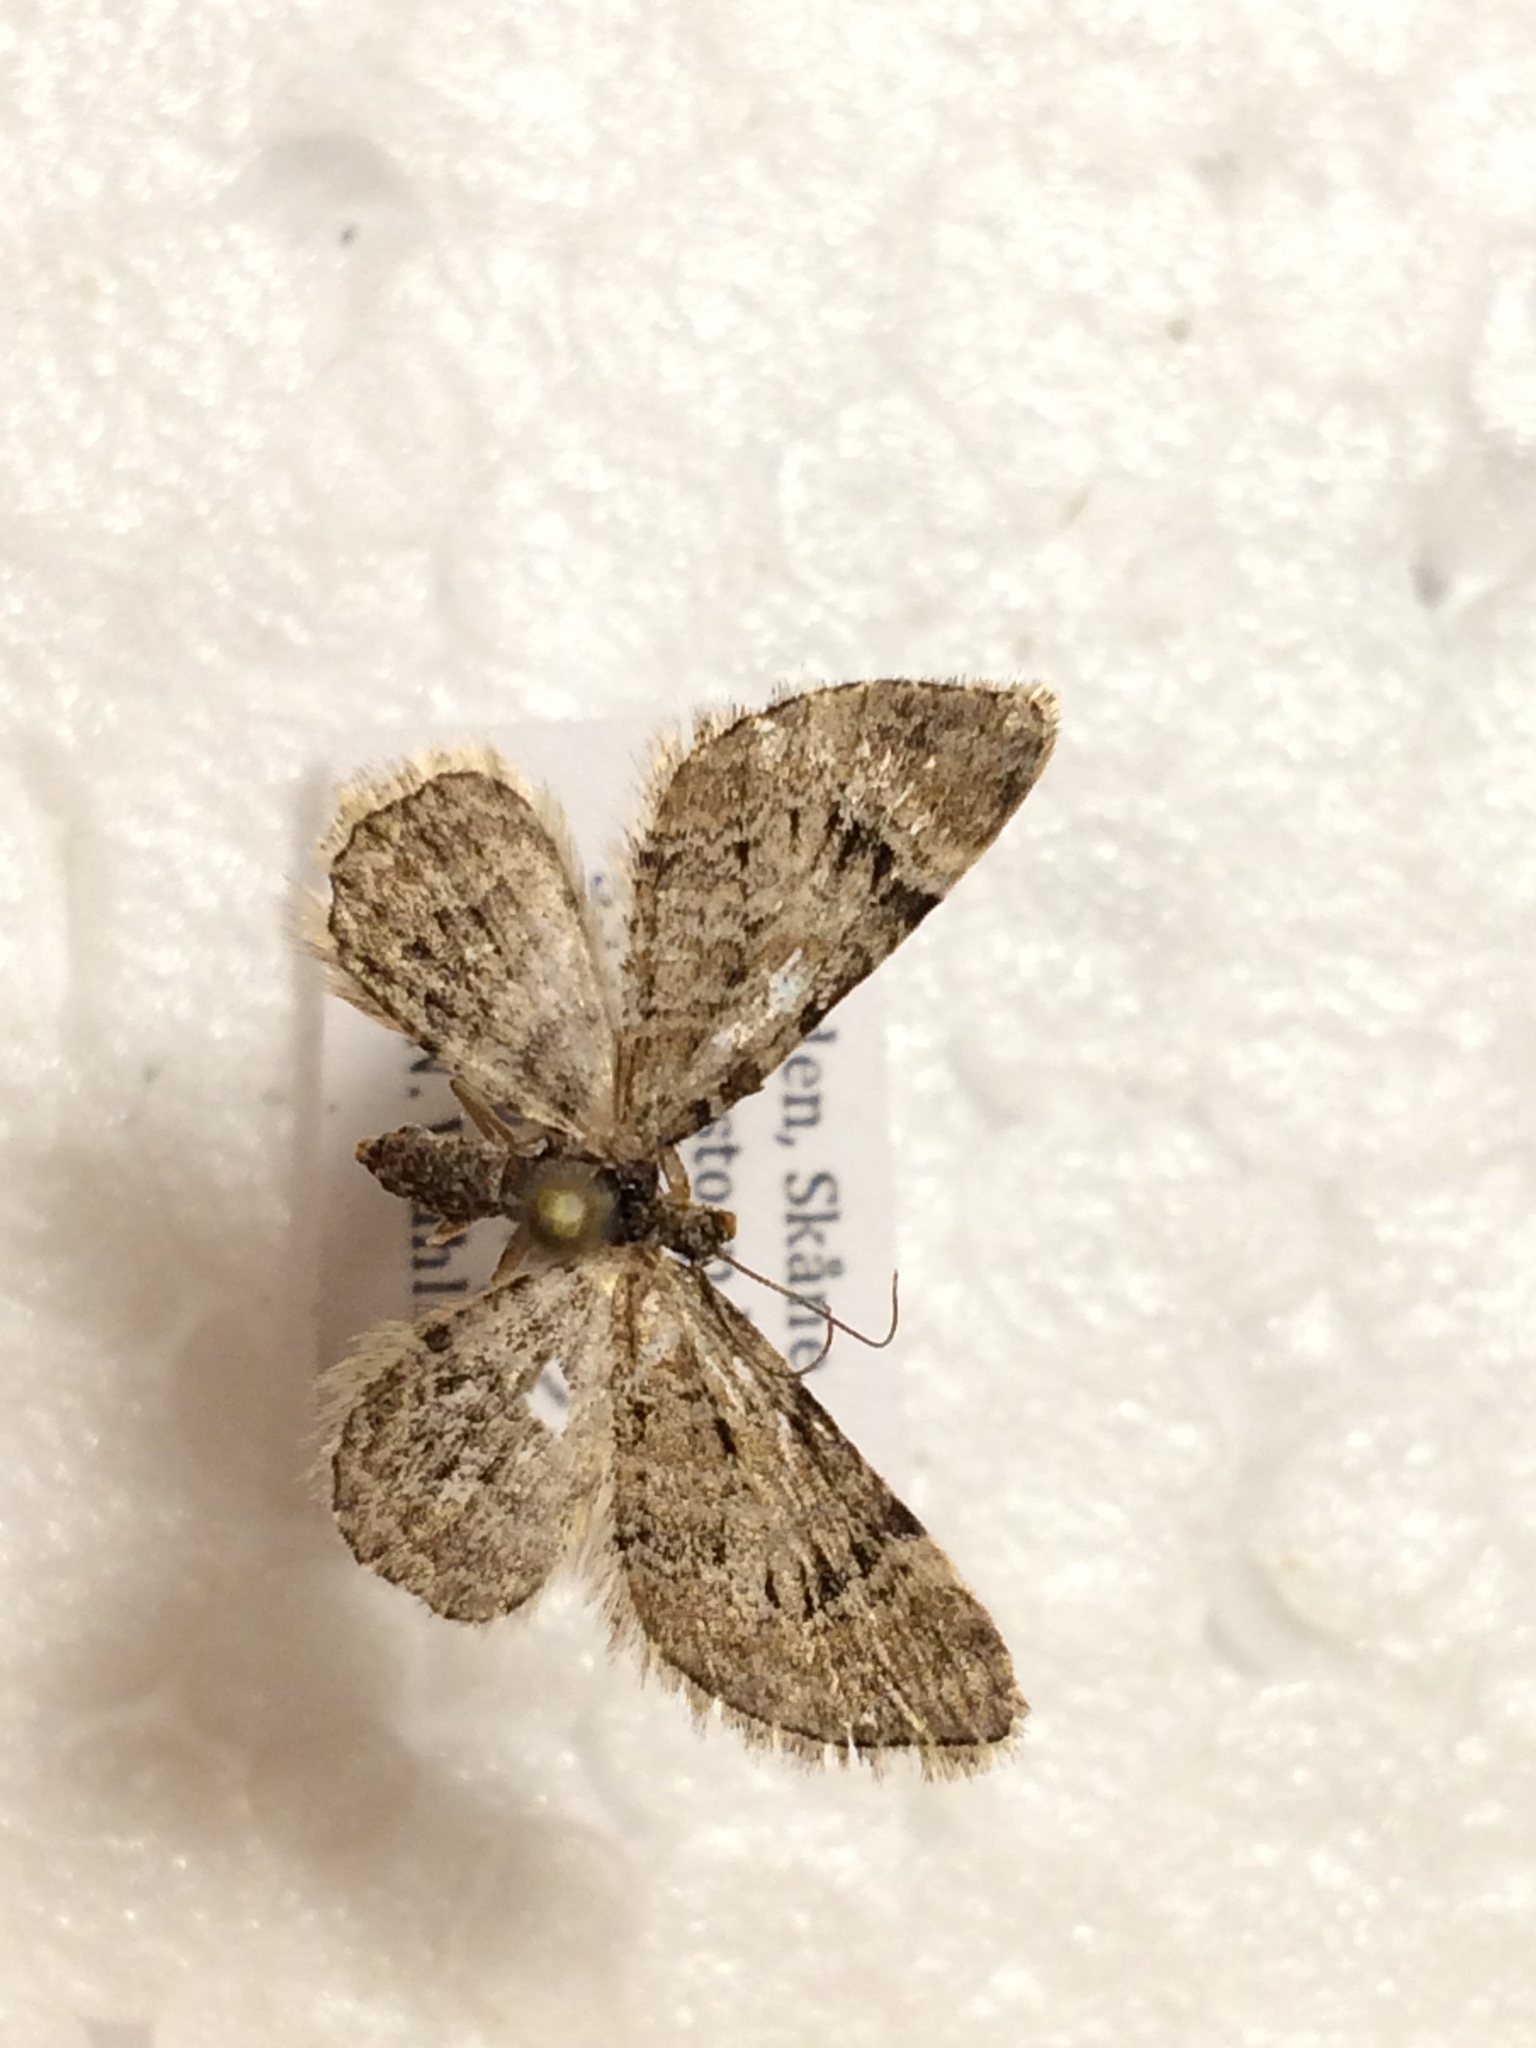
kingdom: Animalia
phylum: Arthropoda
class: Insecta
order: Lepidoptera
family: Geometridae
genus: Gymnoscelis
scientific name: Gymnoscelis rufifasciata
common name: Double-striped pug
